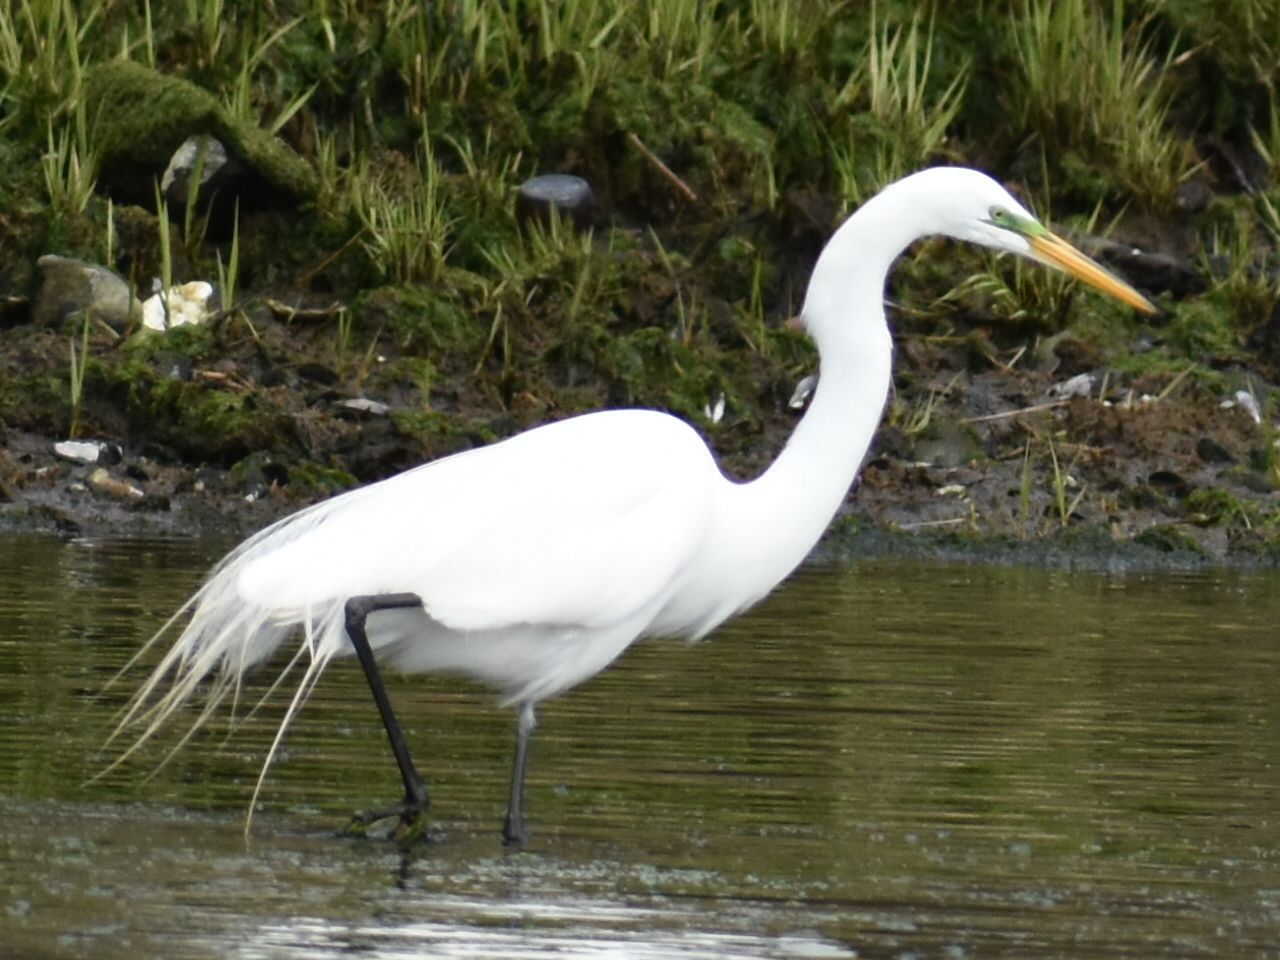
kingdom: Animalia
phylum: Chordata
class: Aves
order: Pelecaniformes
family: Ardeidae
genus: Ardea
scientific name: Ardea alba
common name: Great egret
